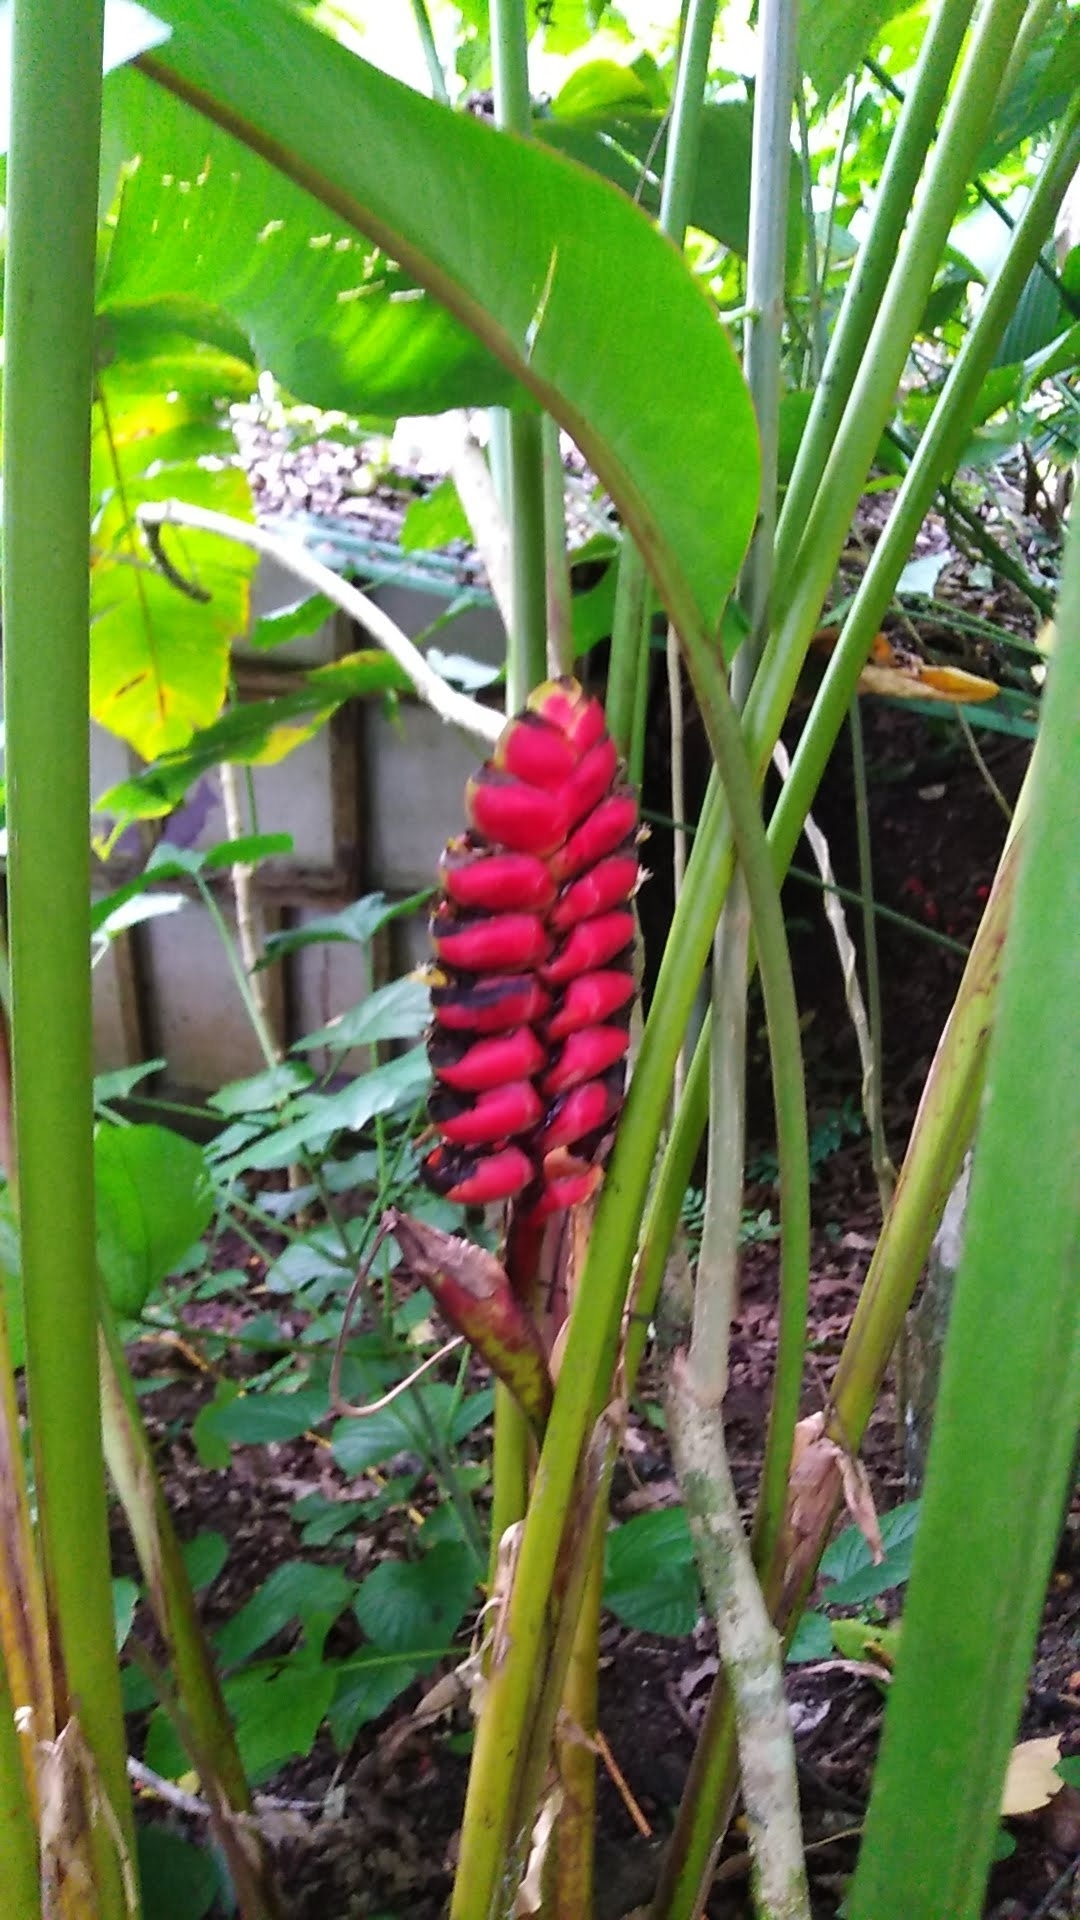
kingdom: Plantae
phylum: Tracheophyta
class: Liliopsida
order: Zingiberales
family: Heliconiaceae
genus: Heliconia
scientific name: Heliconia imbricata
